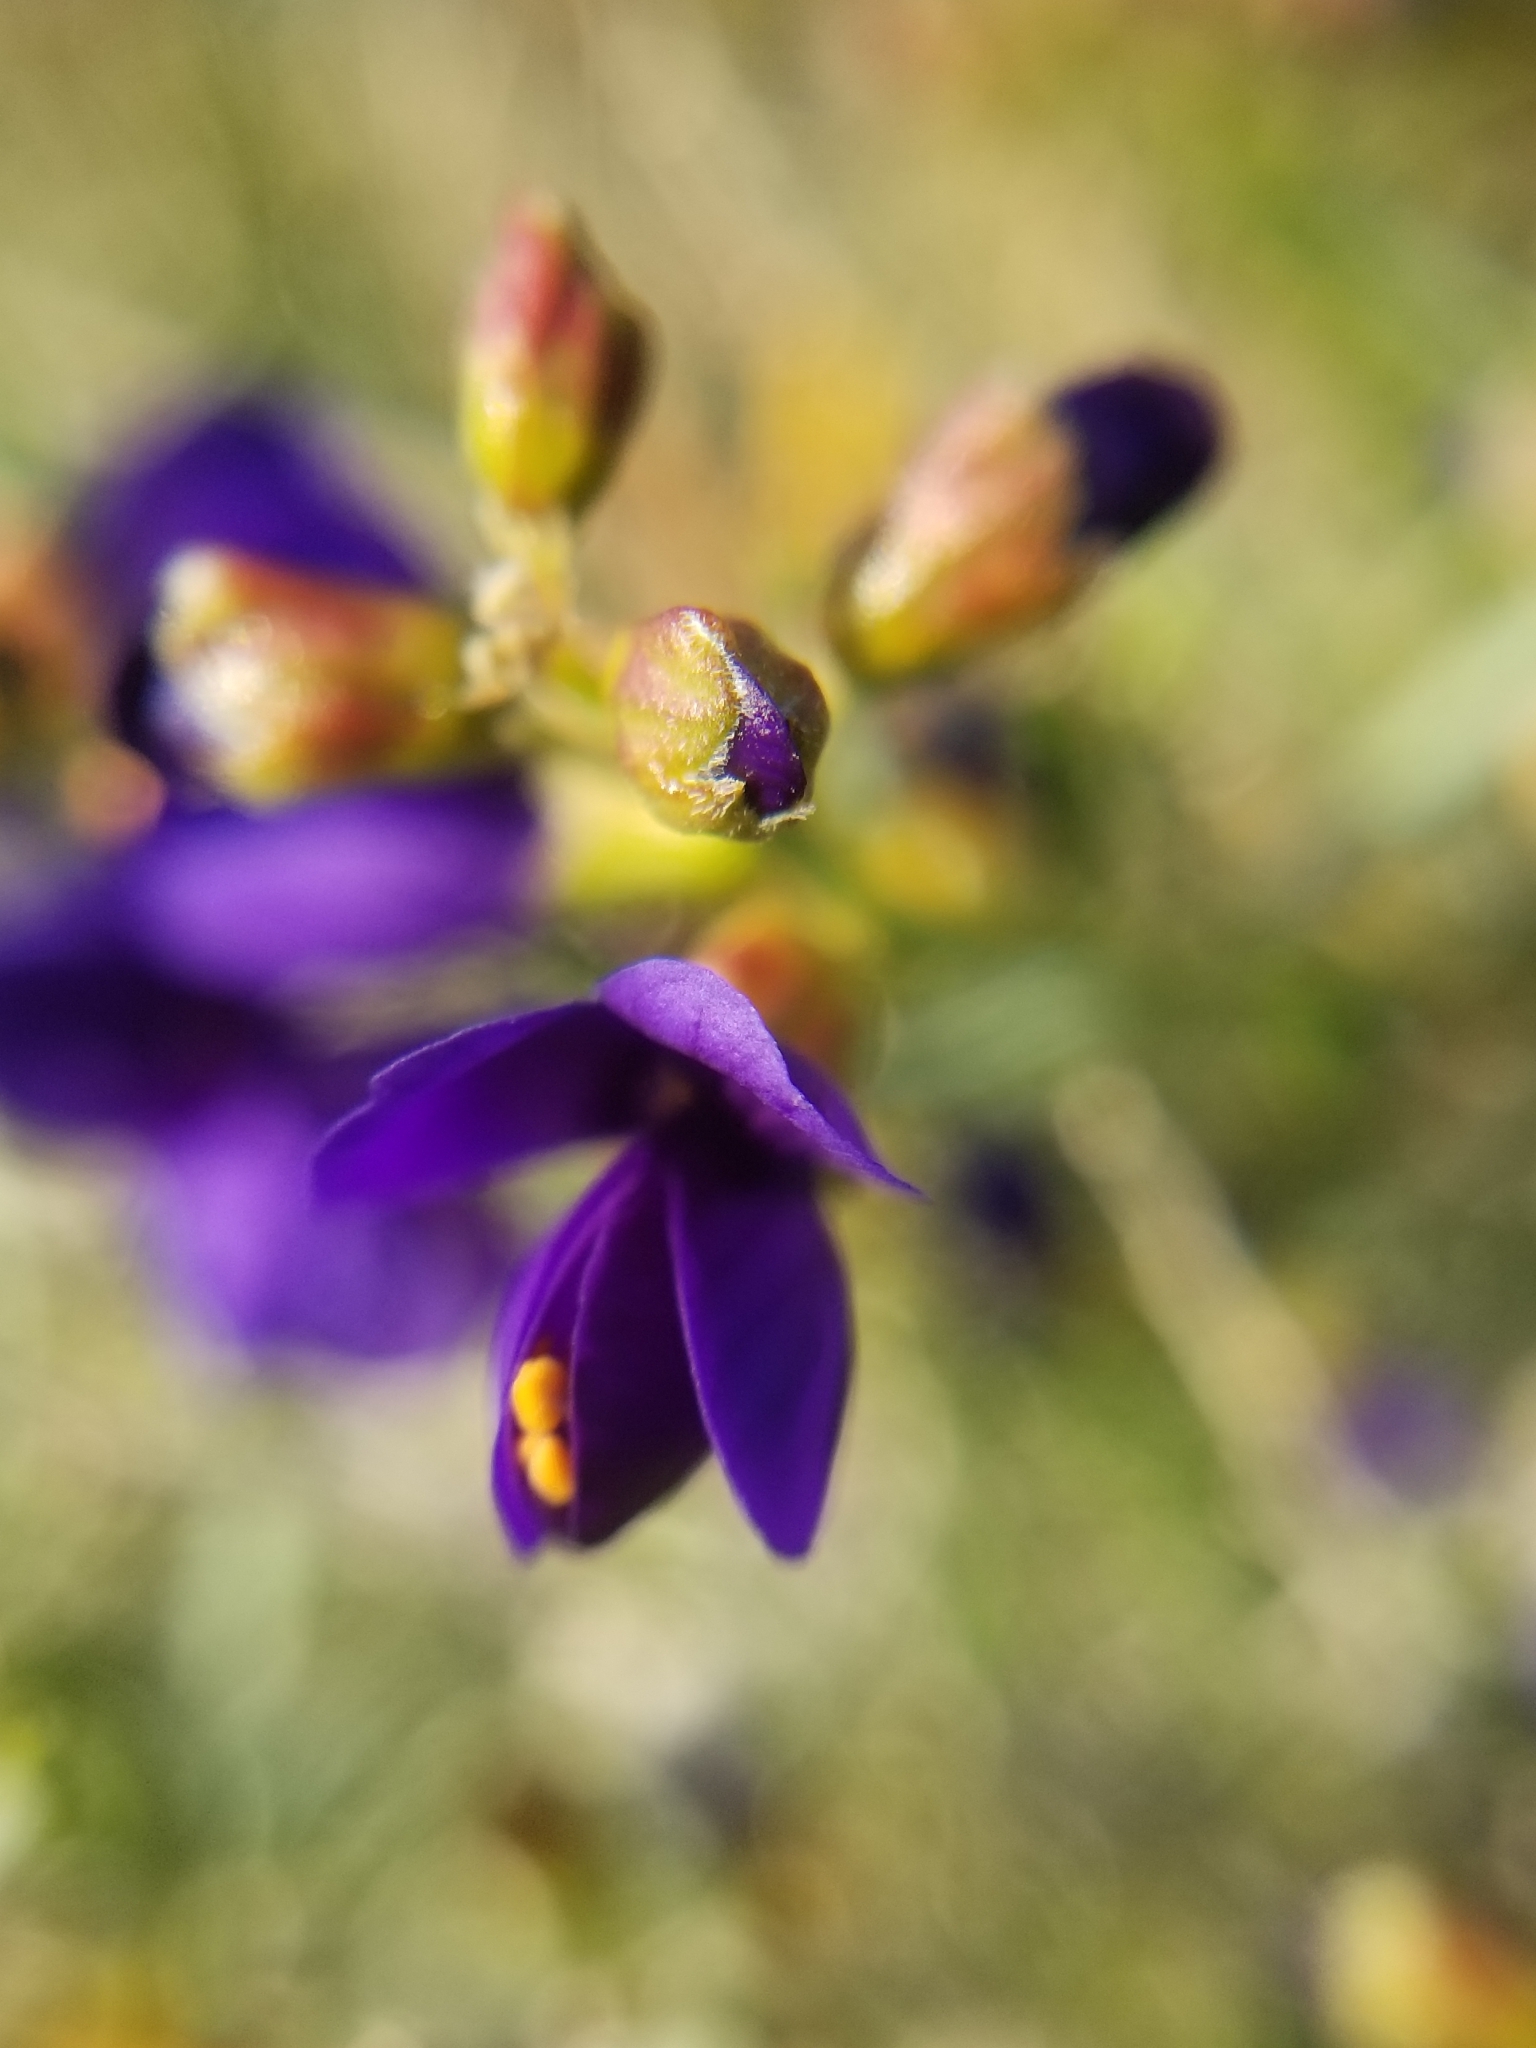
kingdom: Plantae
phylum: Tracheophyta
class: Magnoliopsida
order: Fabales
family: Fabaceae
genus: Psorothamnus
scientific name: Psorothamnus schottii
